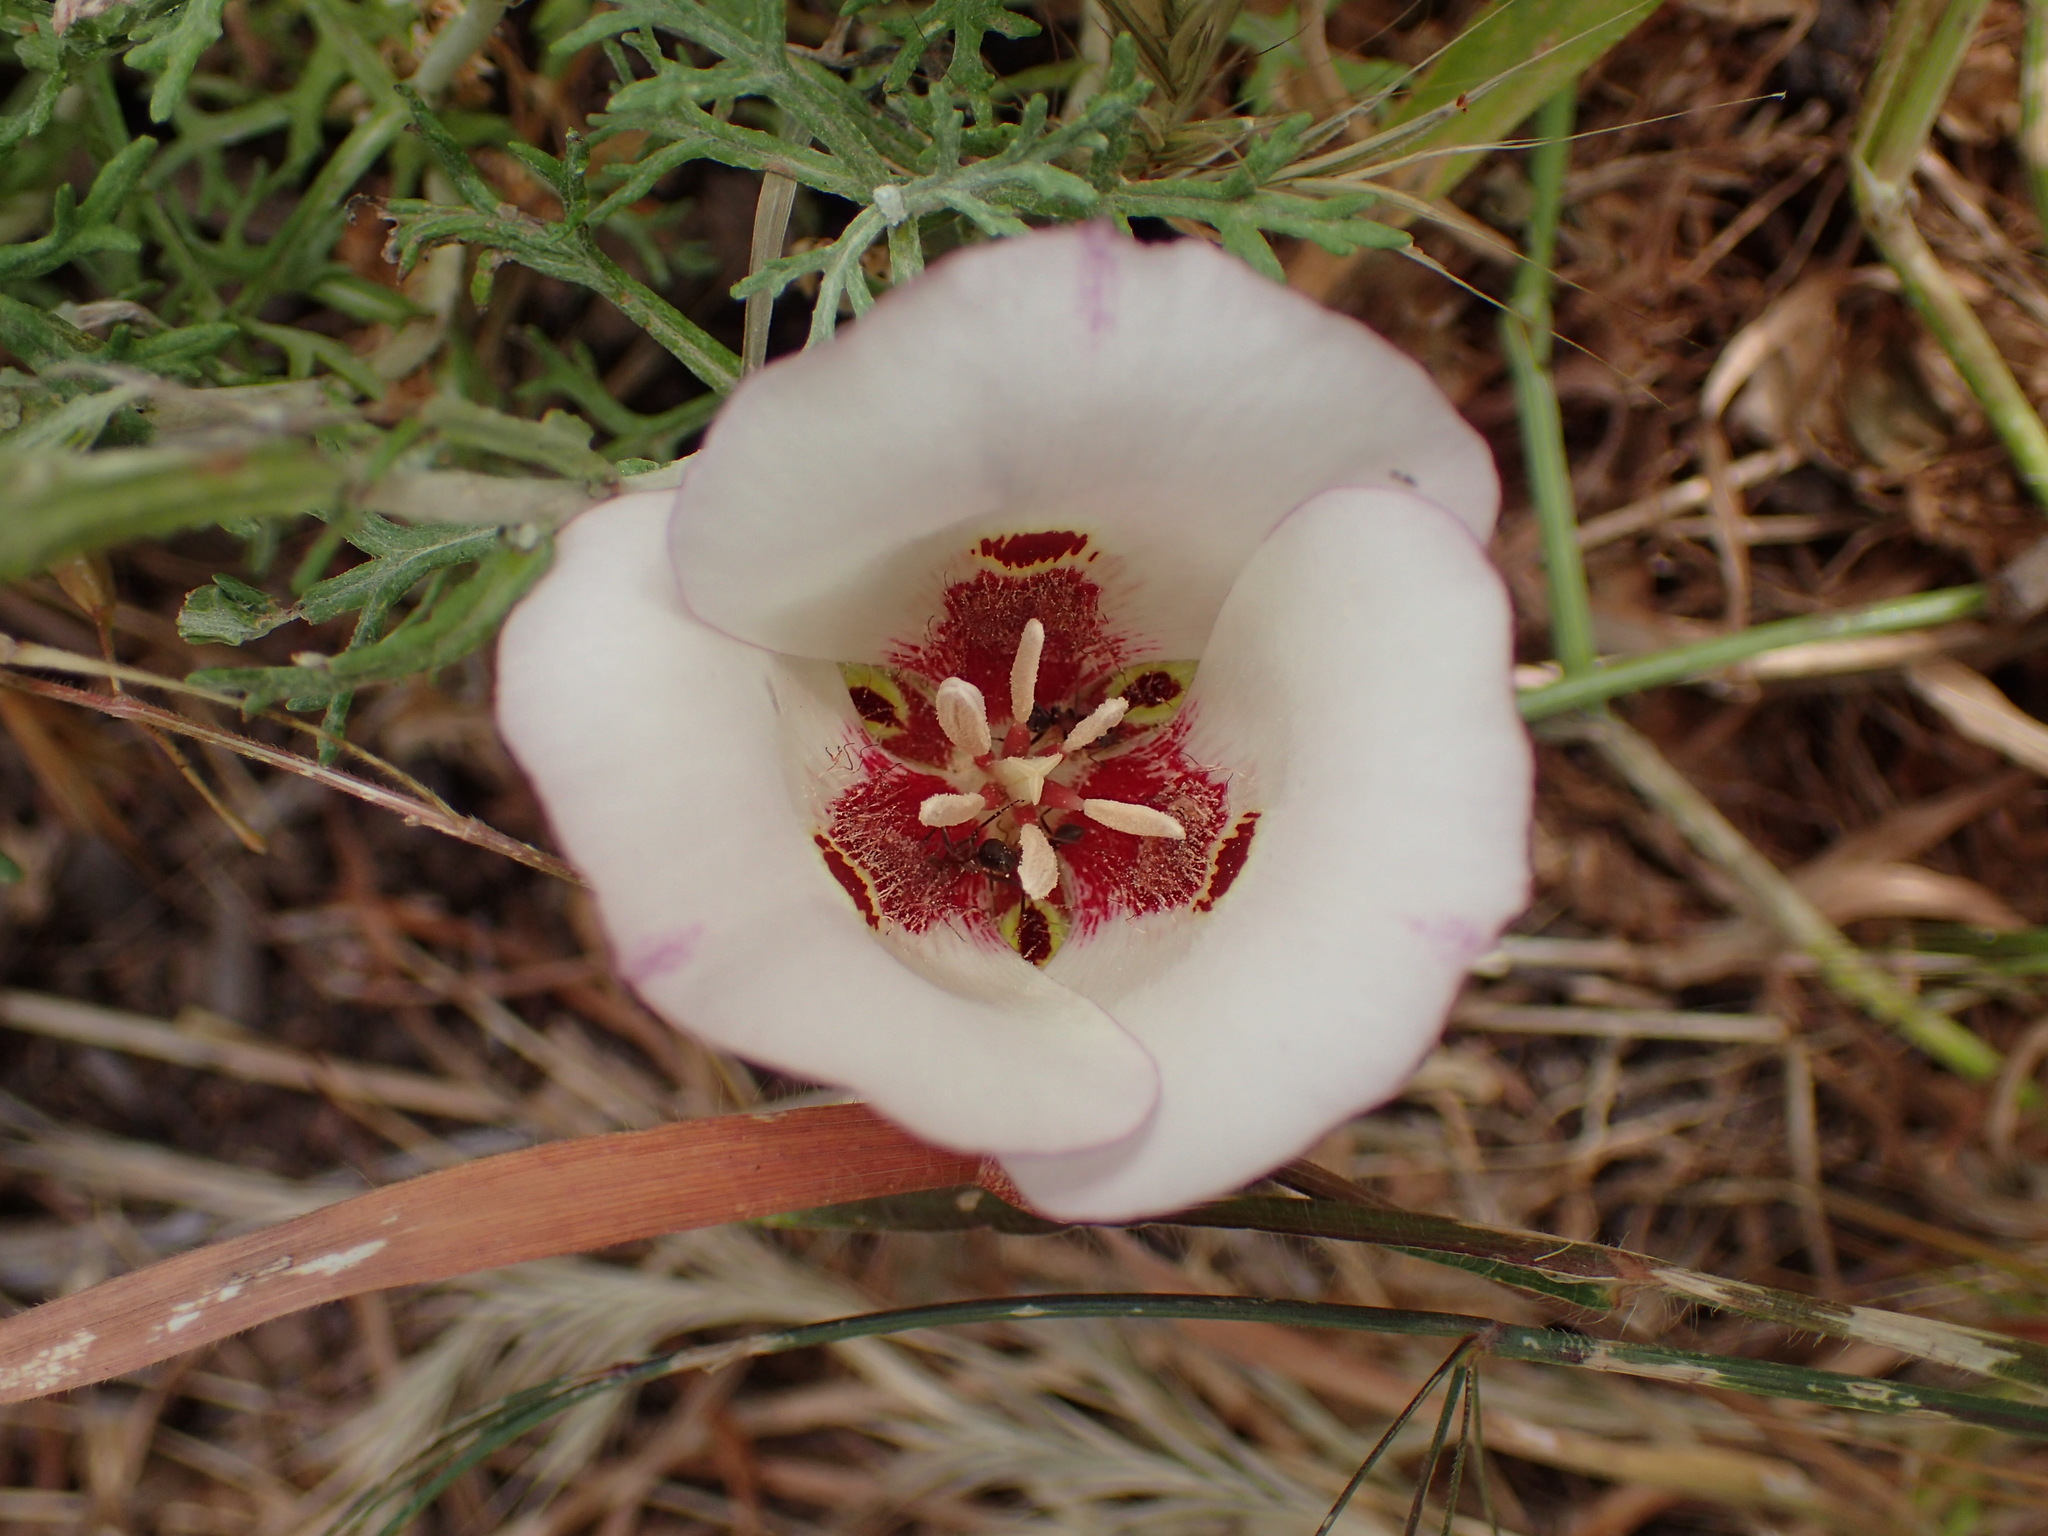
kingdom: Plantae
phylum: Tracheophyta
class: Liliopsida
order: Liliales
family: Liliaceae
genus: Calochortus
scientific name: Calochortus venustus
